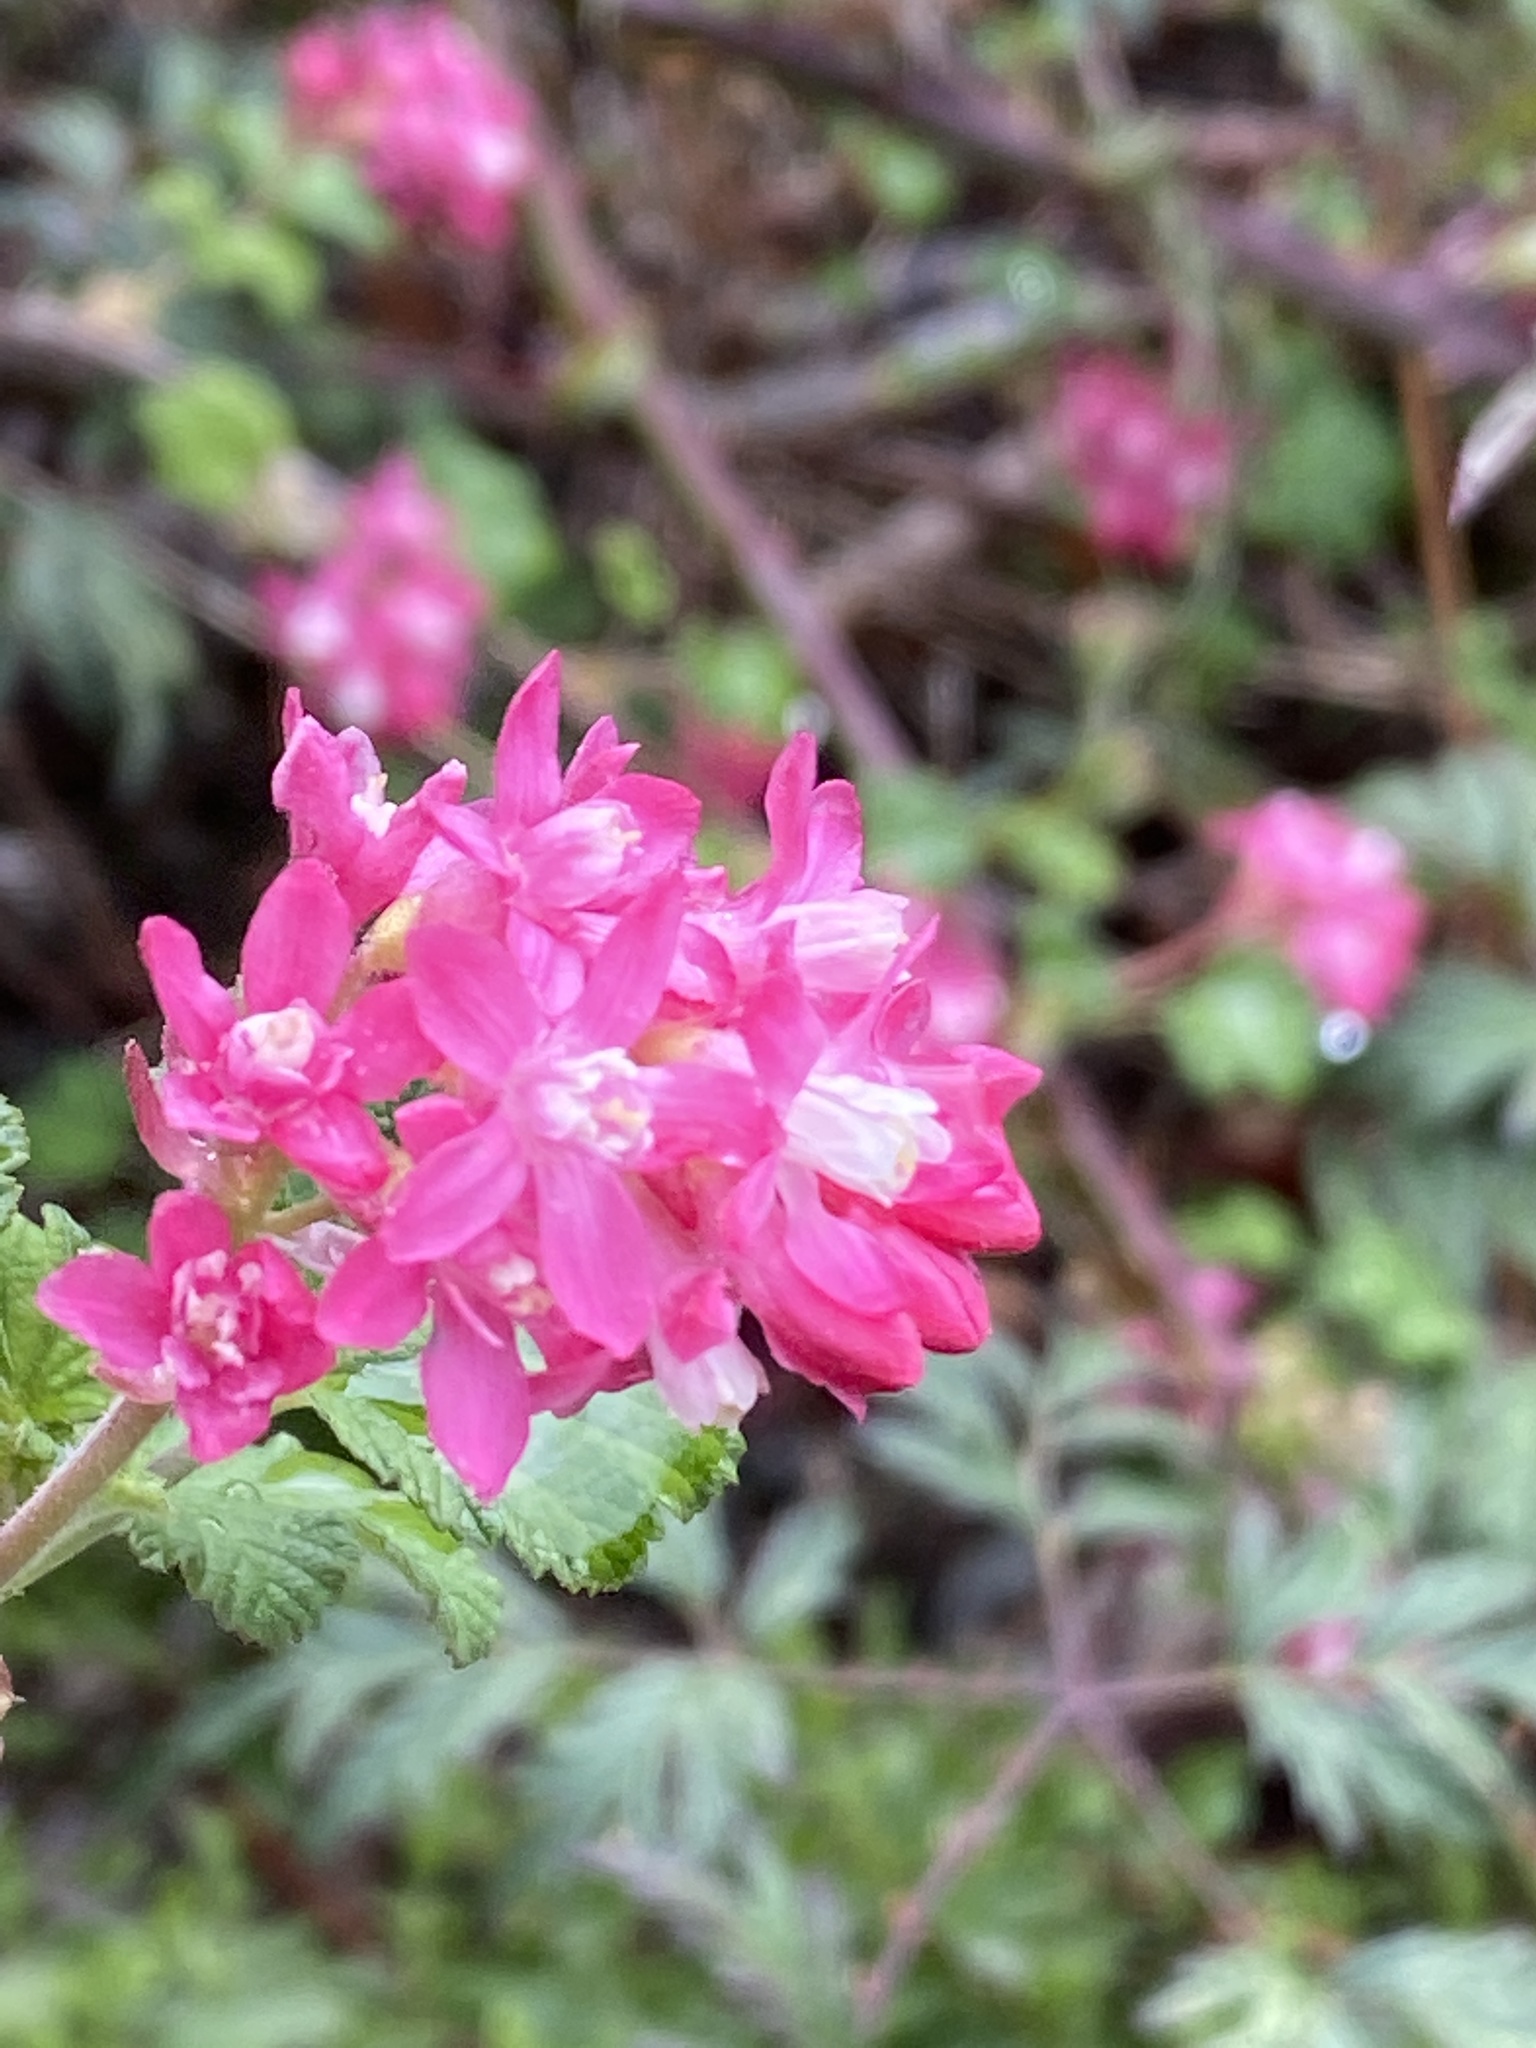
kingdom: Plantae
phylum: Tracheophyta
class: Magnoliopsida
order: Saxifragales
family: Grossulariaceae
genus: Ribes
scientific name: Ribes sanguineum
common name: Flowering currant
